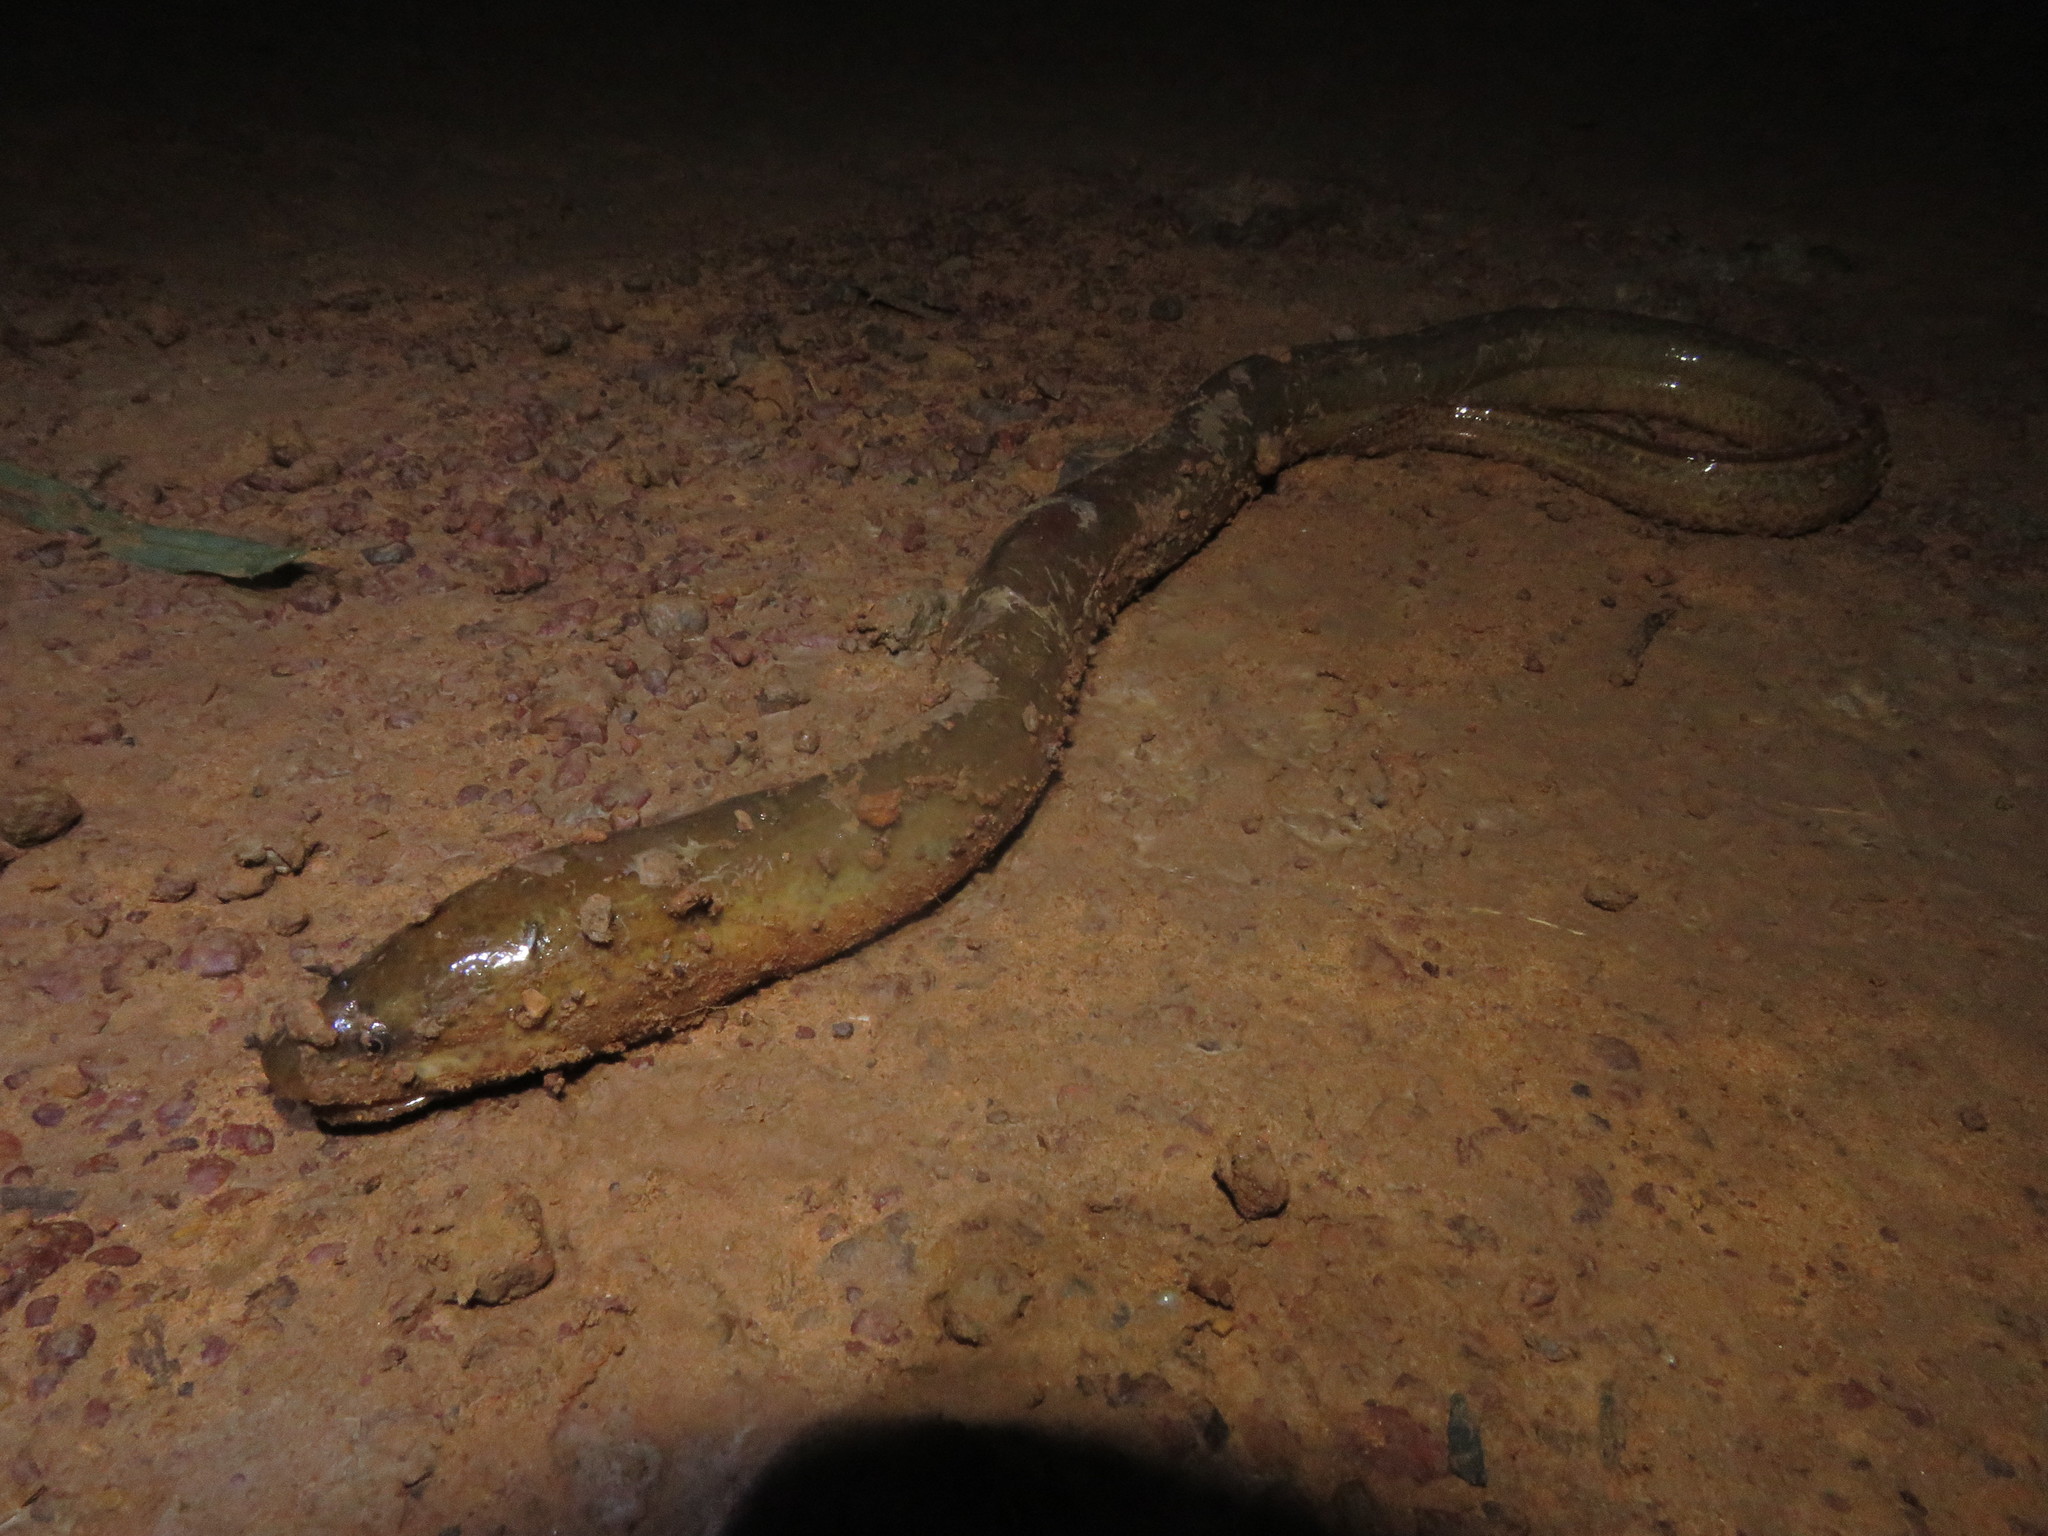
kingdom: Animalia
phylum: Chordata
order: Synbranchiformes
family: Synbranchidae
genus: Synbranchus
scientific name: Synbranchus marmoratus
